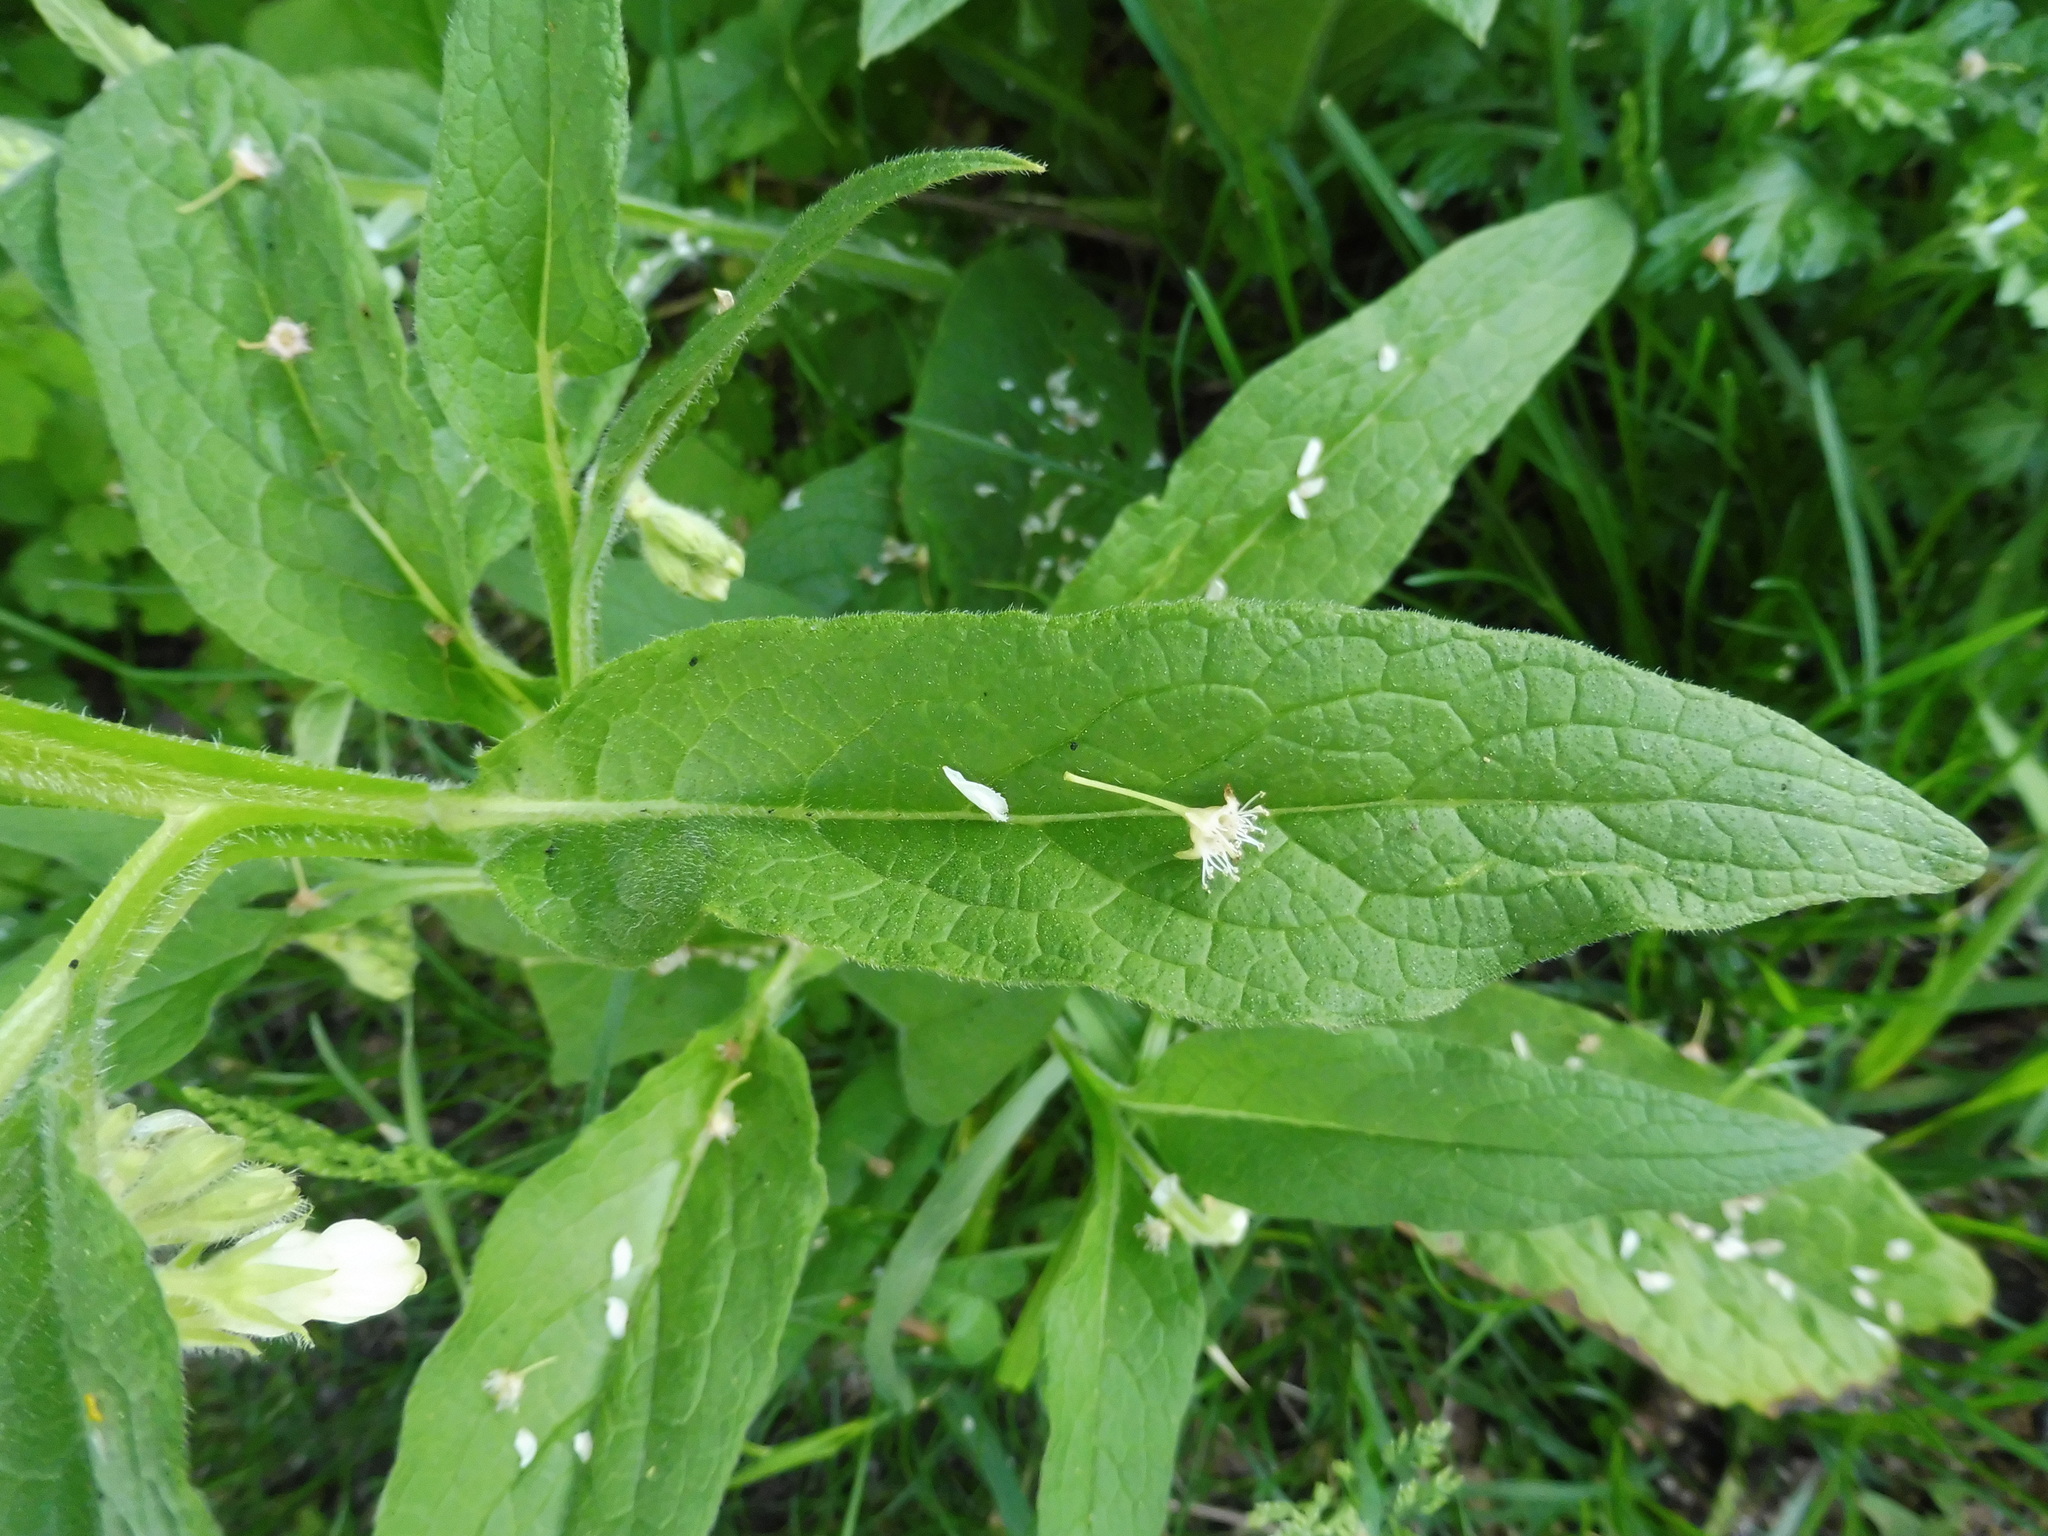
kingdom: Plantae
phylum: Tracheophyta
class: Magnoliopsida
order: Boraginales
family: Boraginaceae
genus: Symphytum
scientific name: Symphytum bohemicum
